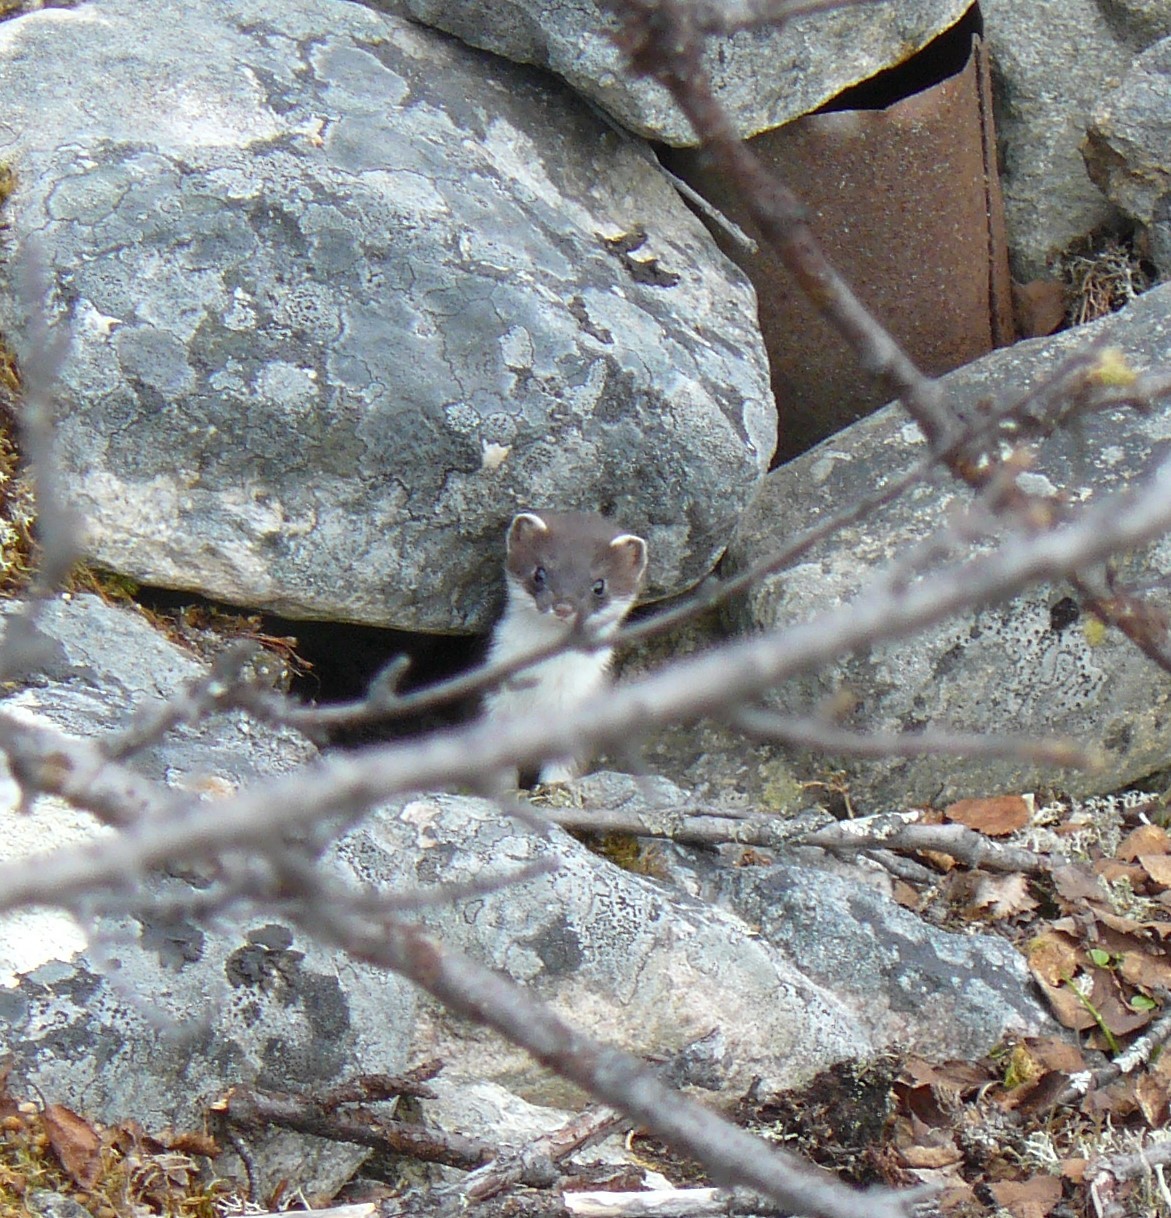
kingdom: Animalia
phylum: Chordata
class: Mammalia
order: Carnivora
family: Mustelidae
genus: Mustela
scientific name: Mustela erminea
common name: Stoat
